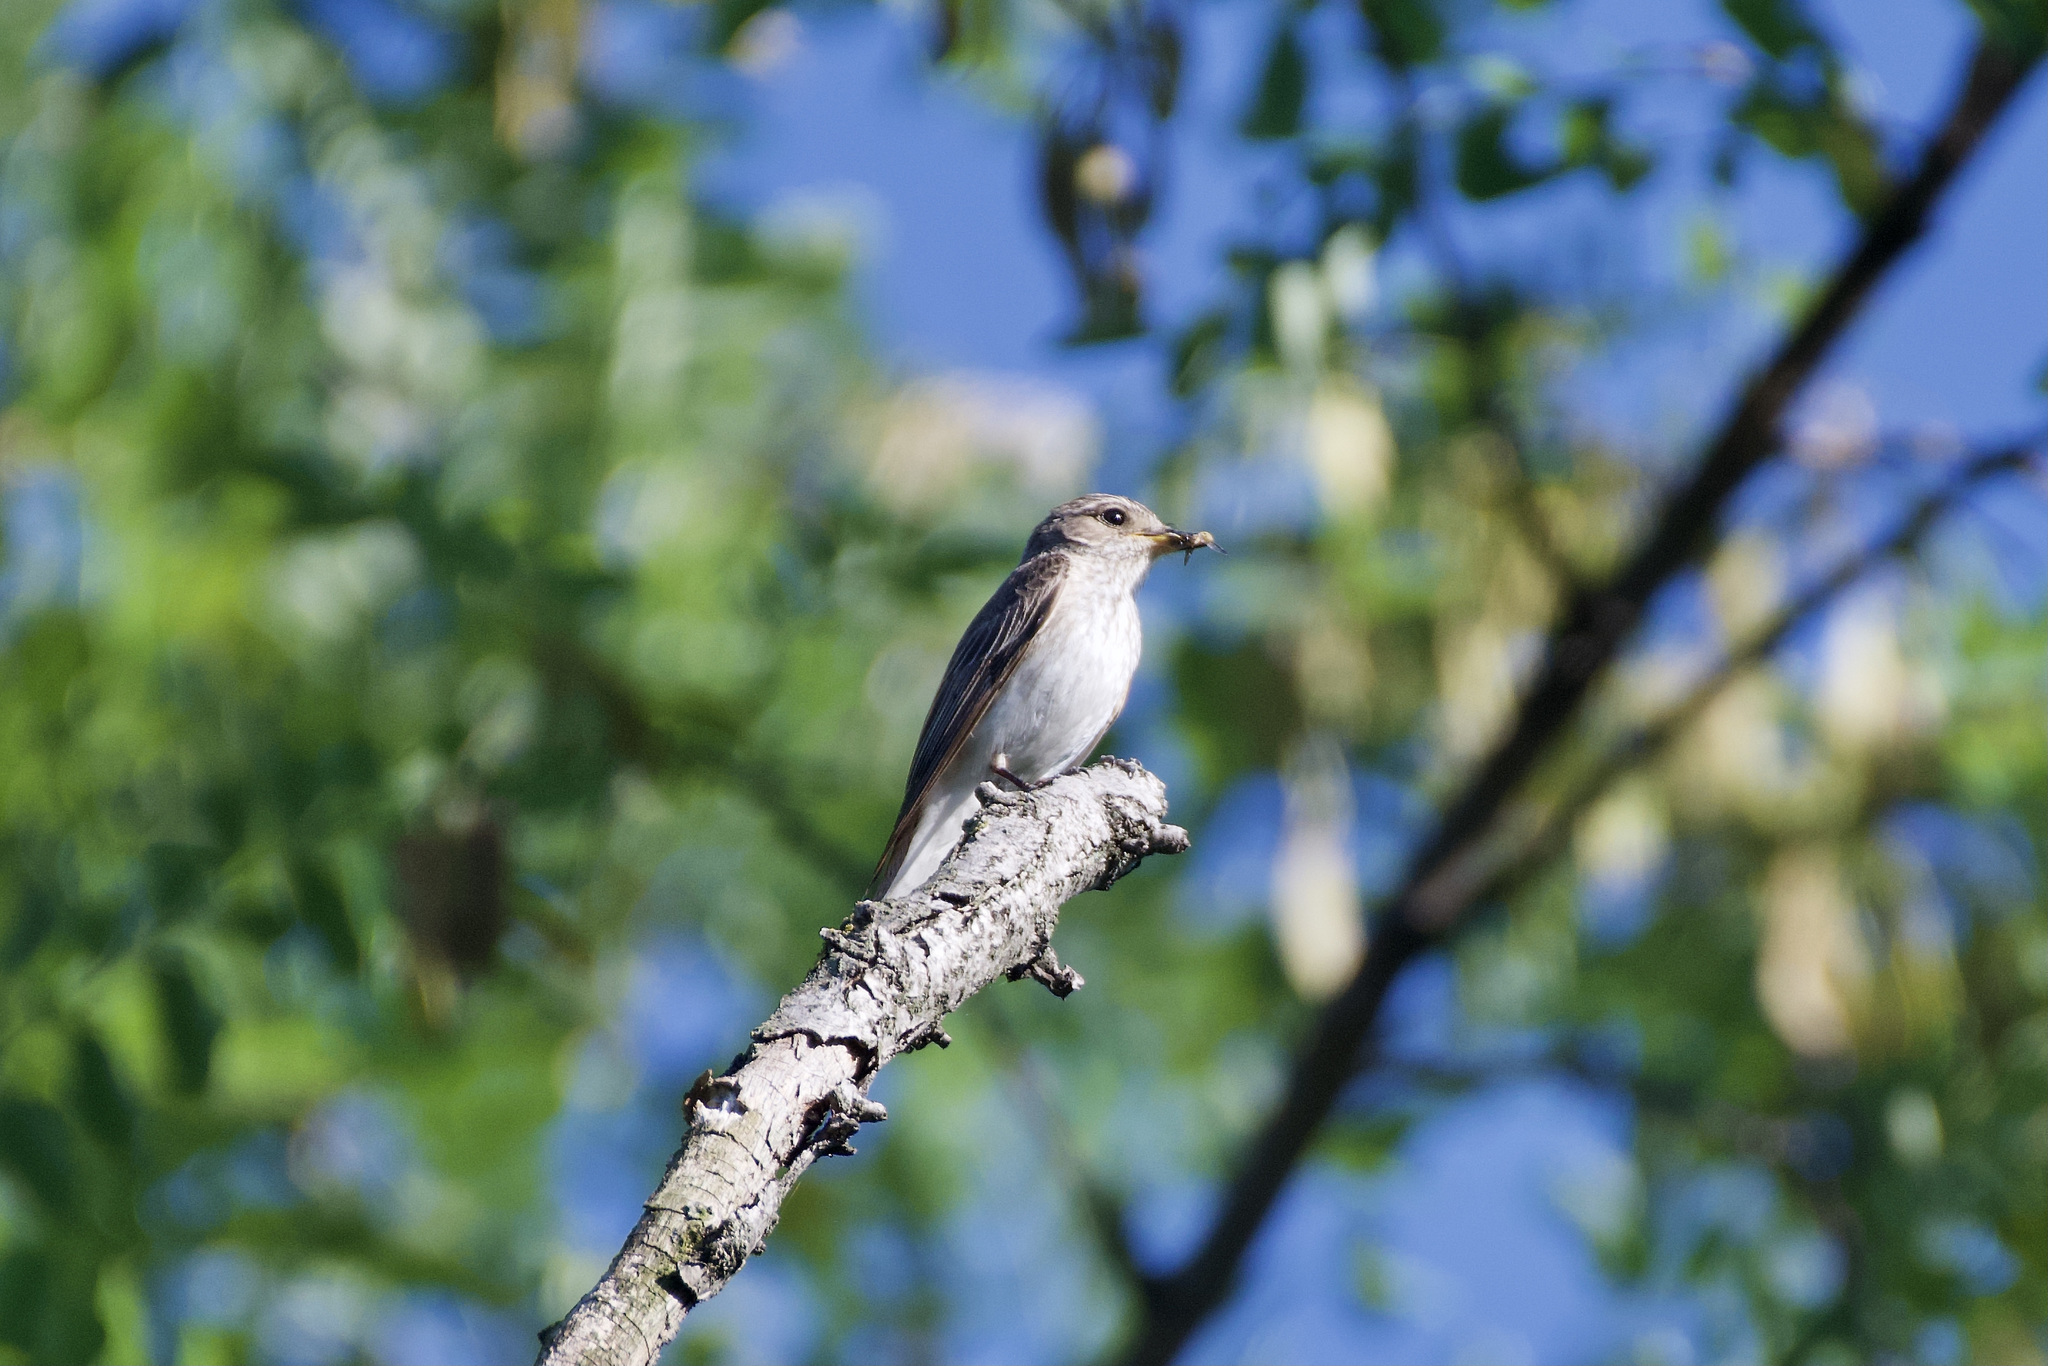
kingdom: Animalia
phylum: Chordata
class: Aves
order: Passeriformes
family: Muscicapidae
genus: Muscicapa
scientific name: Muscicapa striata
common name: Spotted flycatcher
